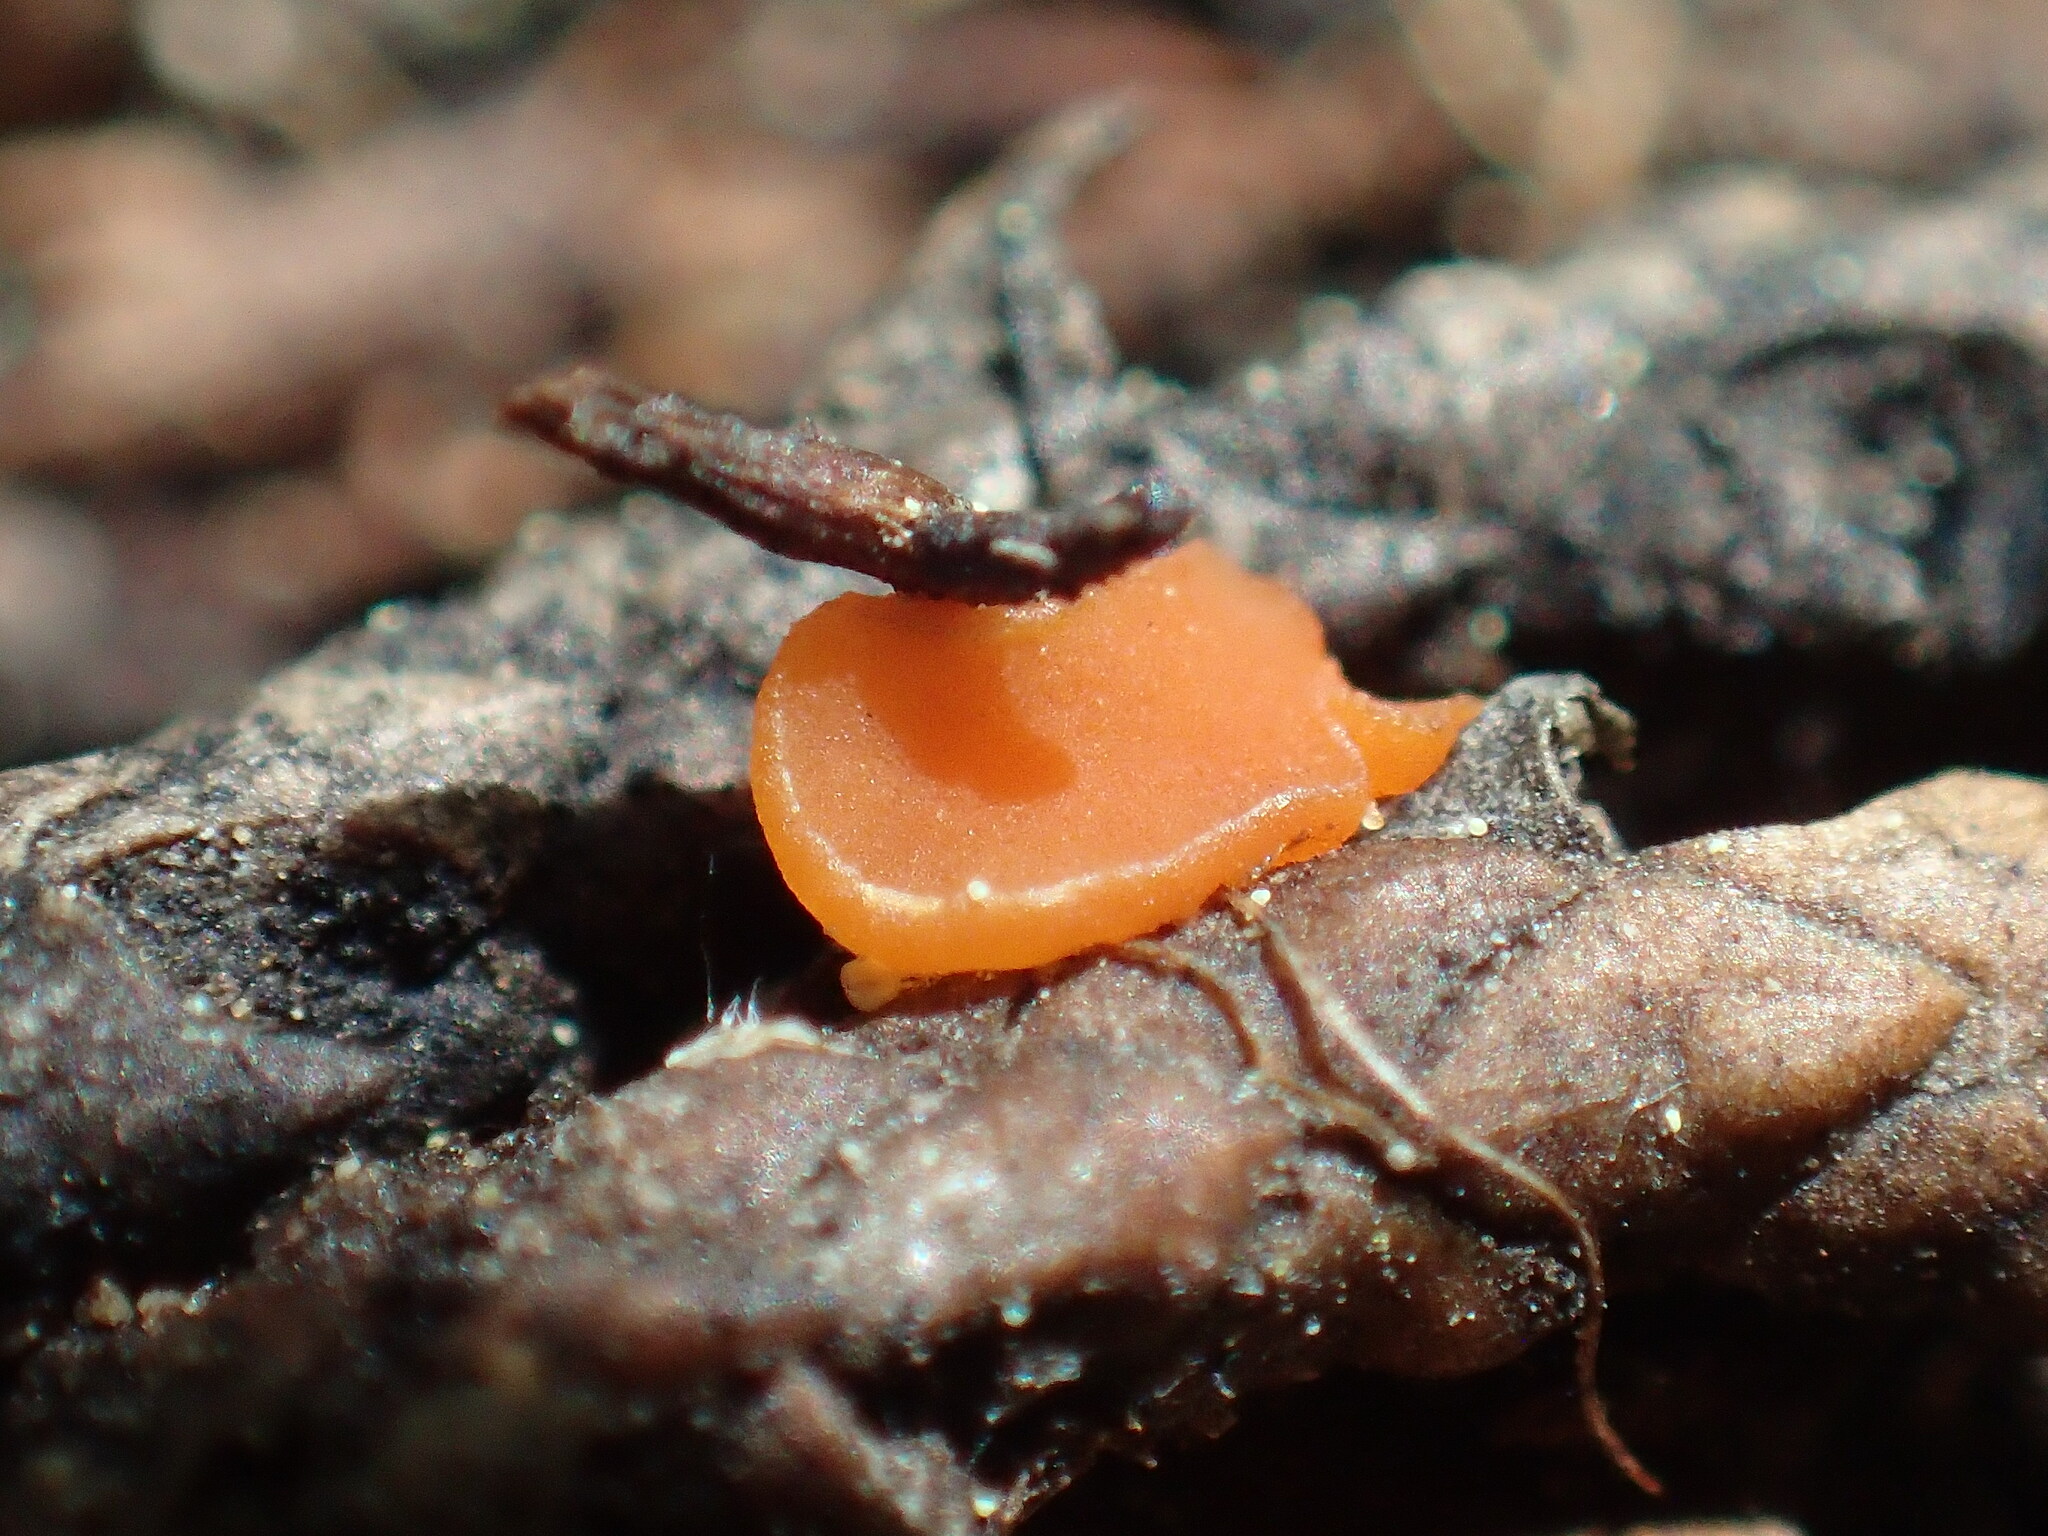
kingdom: Fungi
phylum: Ascomycota
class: Pezizomycetes
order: Pezizales
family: Sarcoscyphaceae
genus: Pithya
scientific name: Pithya cupressina
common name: Juniper disco
